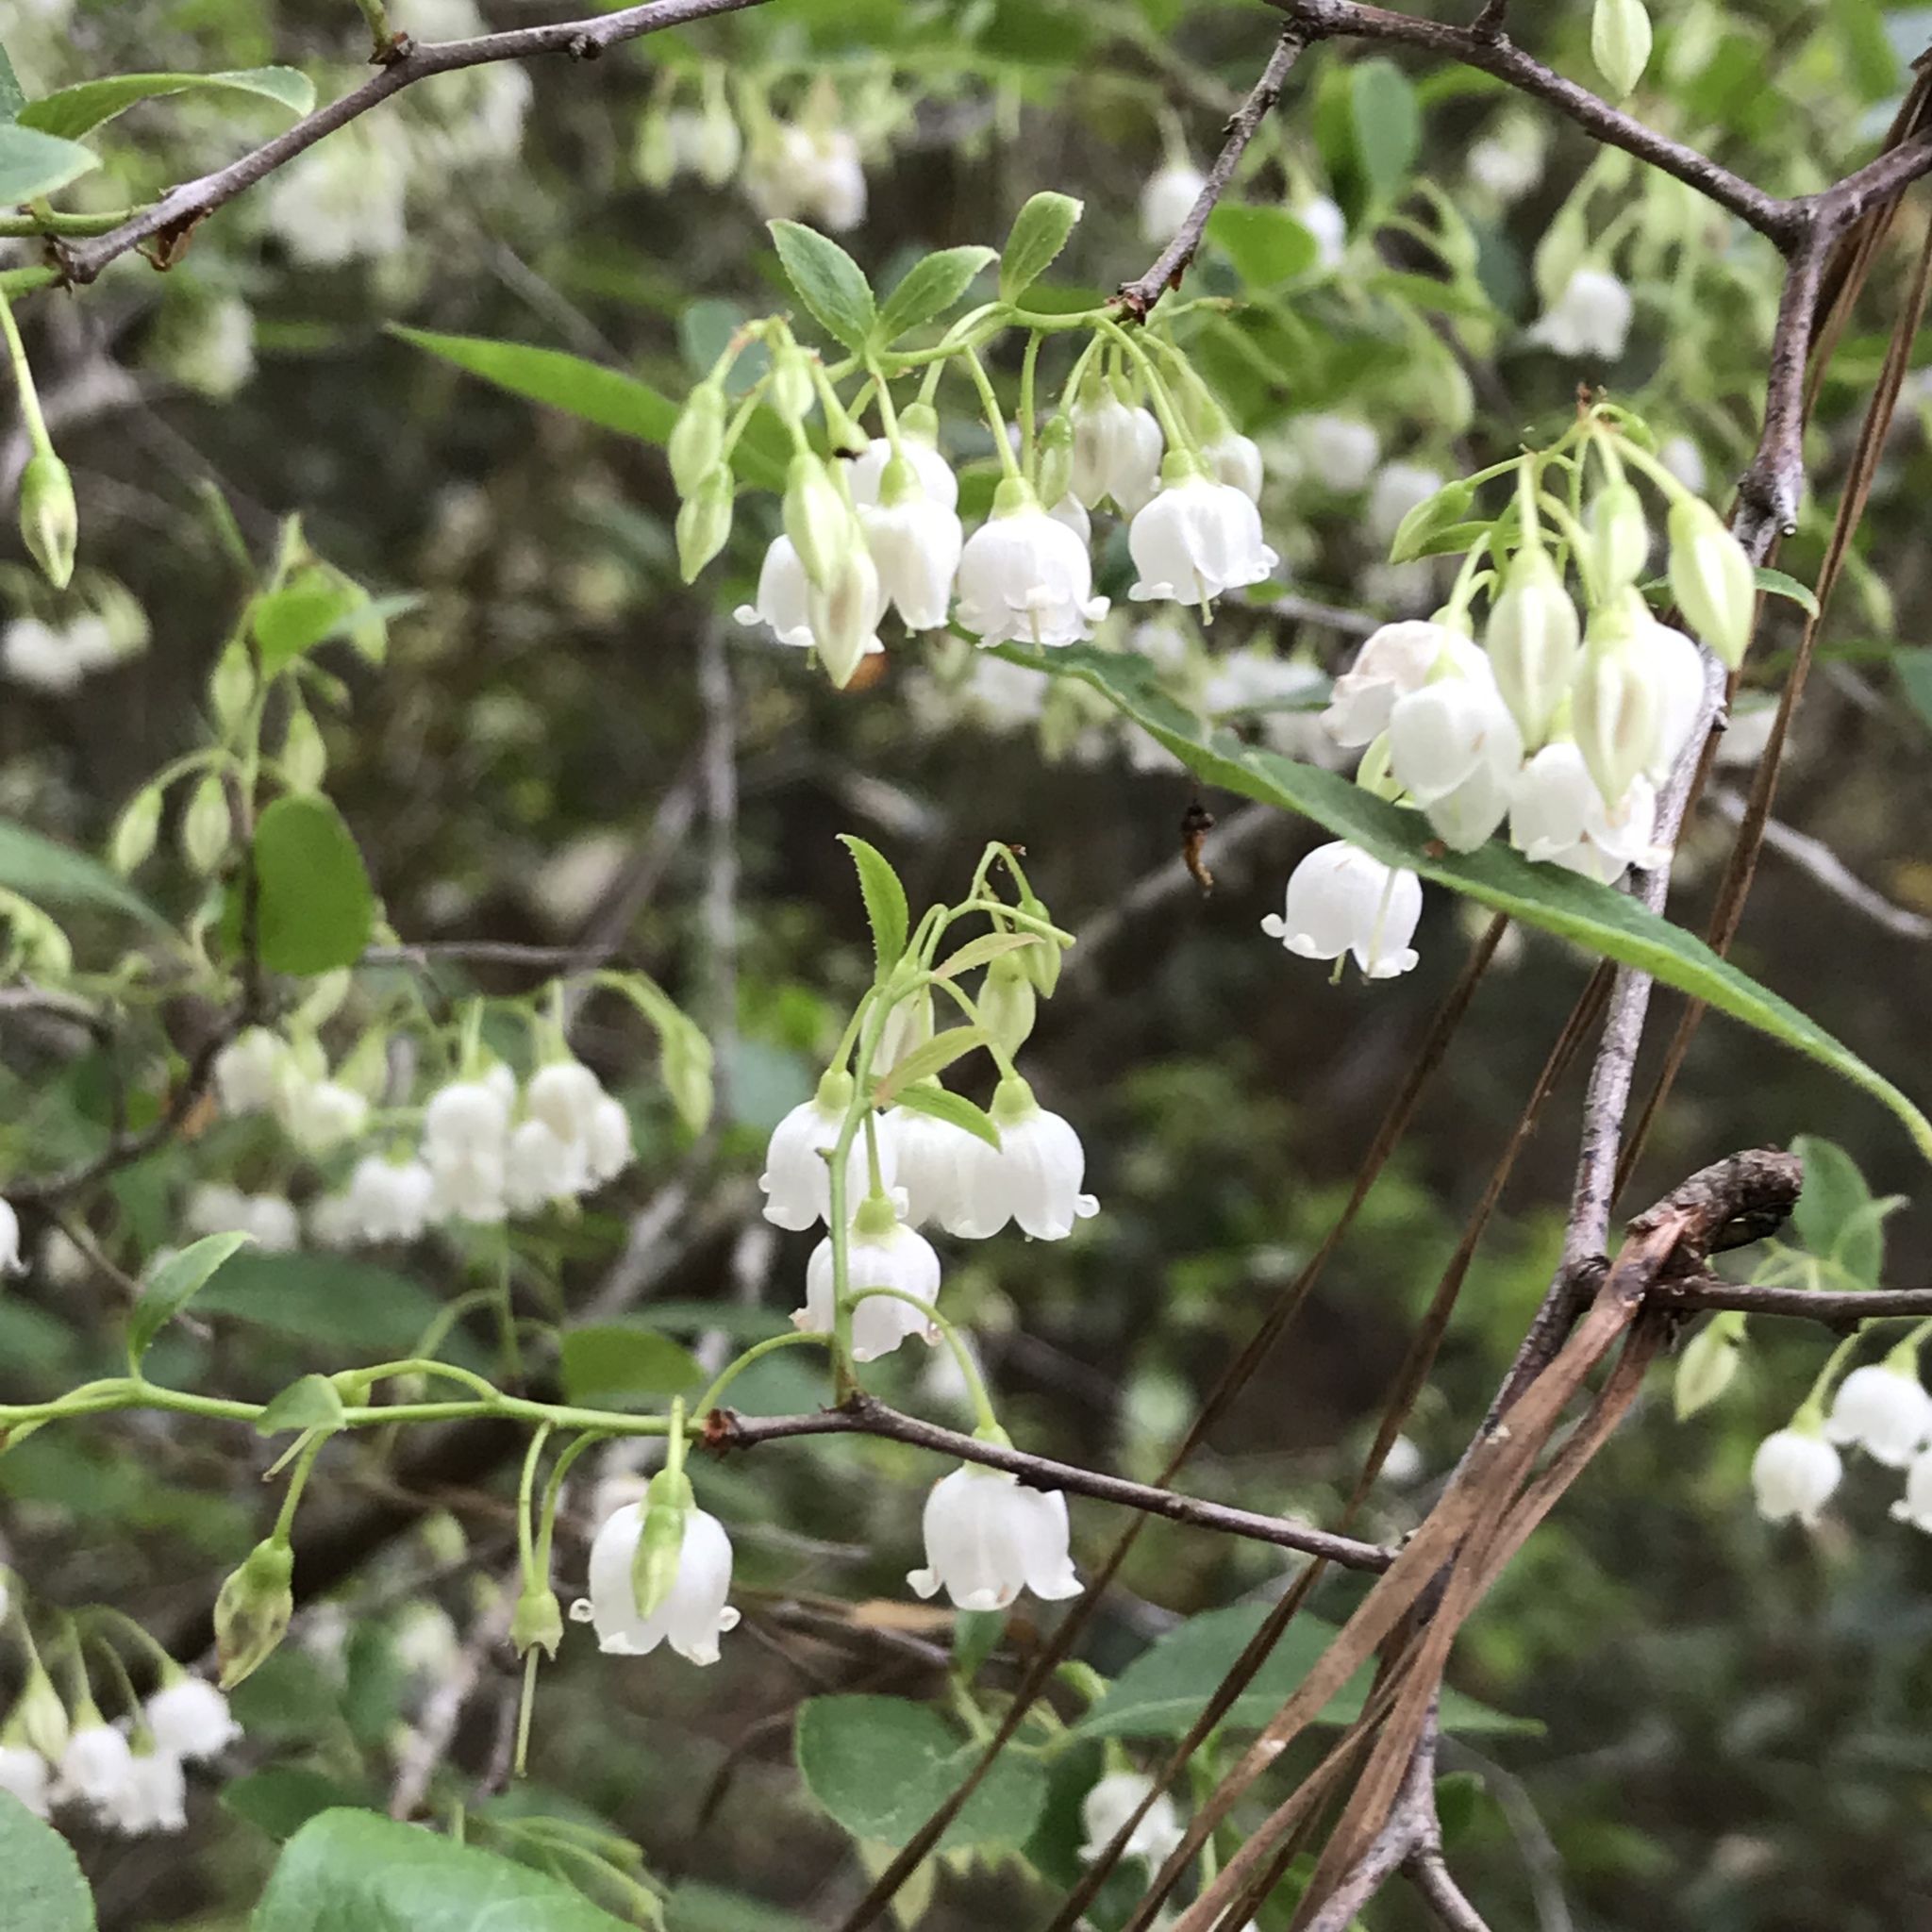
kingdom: Plantae
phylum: Tracheophyta
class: Magnoliopsida
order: Ericales
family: Ericaceae
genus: Vaccinium
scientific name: Vaccinium arboreum
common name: Farkleberry
